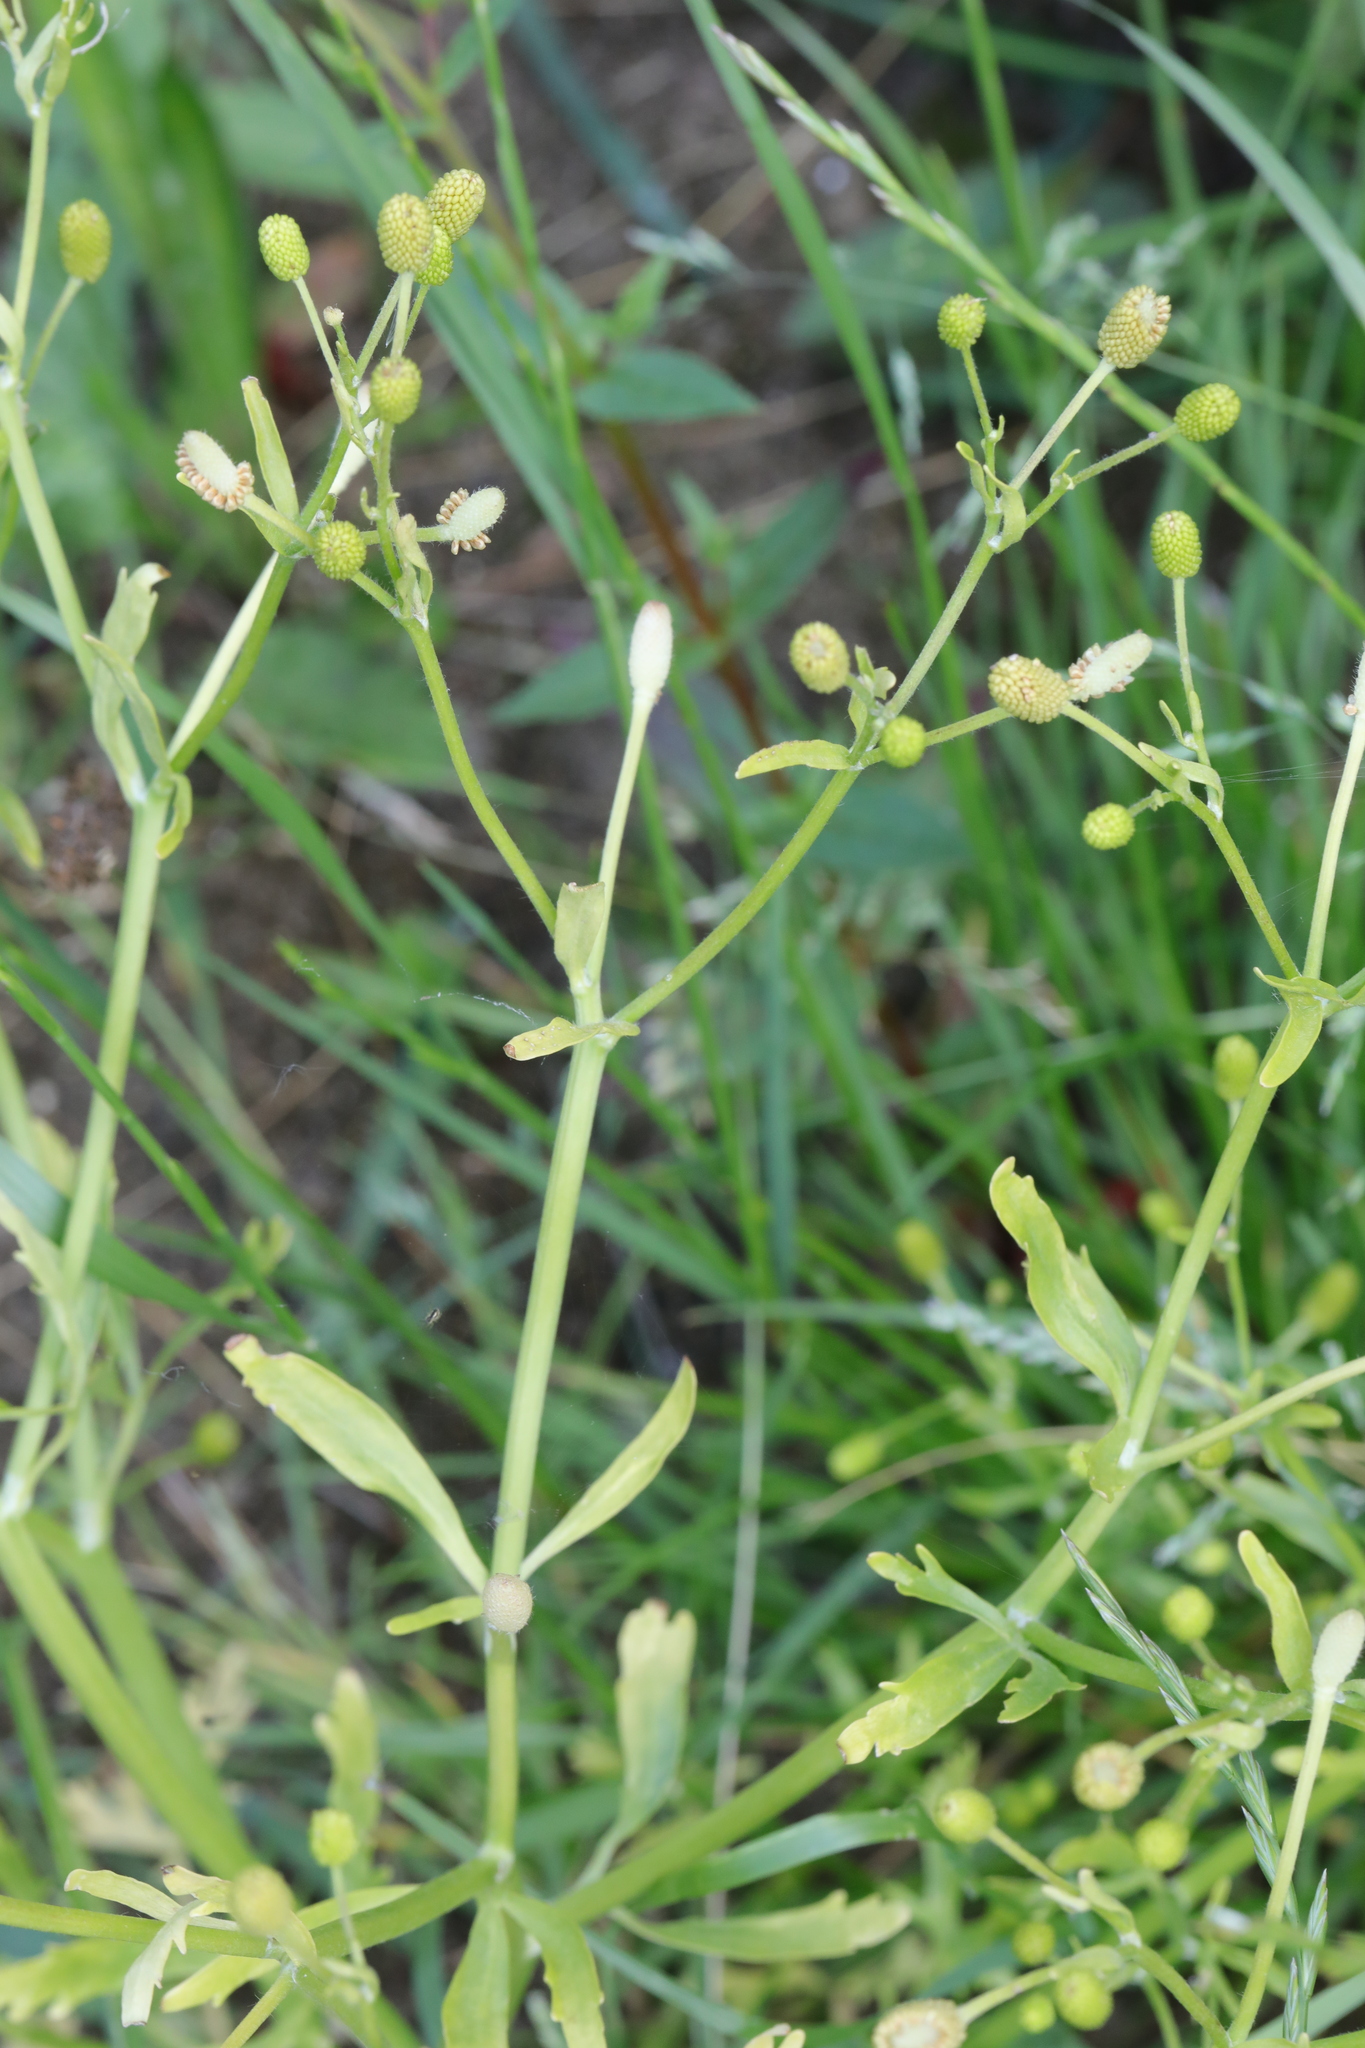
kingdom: Plantae
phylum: Tracheophyta
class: Magnoliopsida
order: Ranunculales
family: Ranunculaceae
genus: Ranunculus
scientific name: Ranunculus sceleratus
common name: Celery-leaved buttercup
